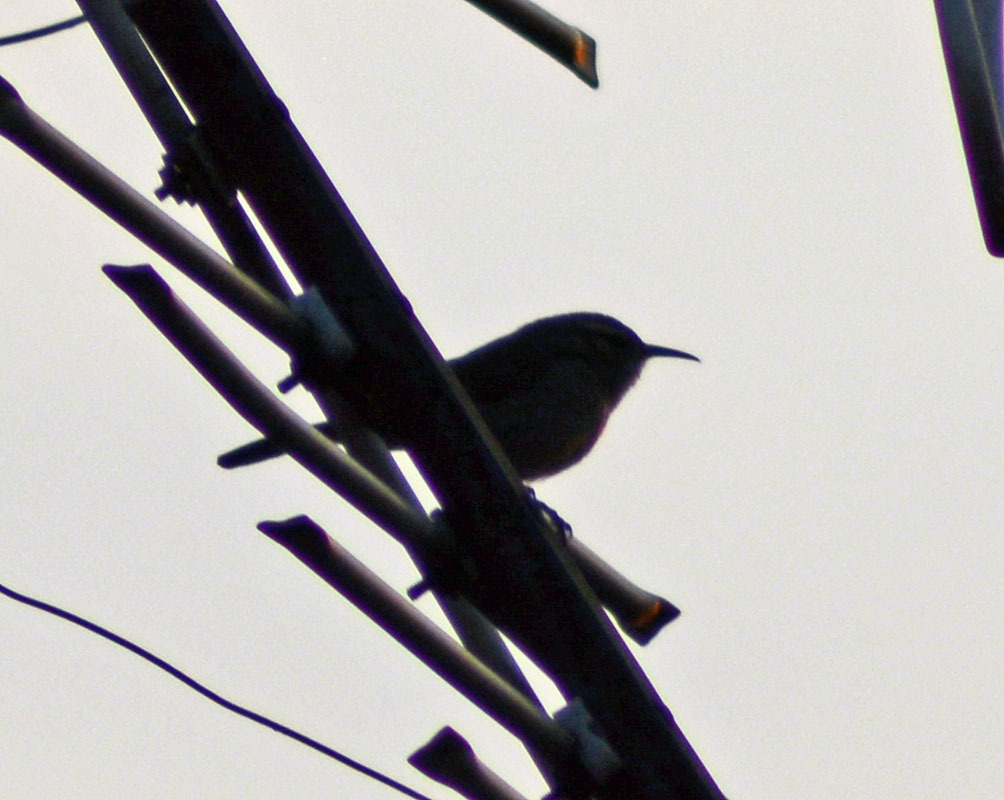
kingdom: Animalia
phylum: Chordata
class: Aves
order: Passeriformes
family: Troglodytidae
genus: Thryomanes
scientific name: Thryomanes bewickii
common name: Bewick's wren
